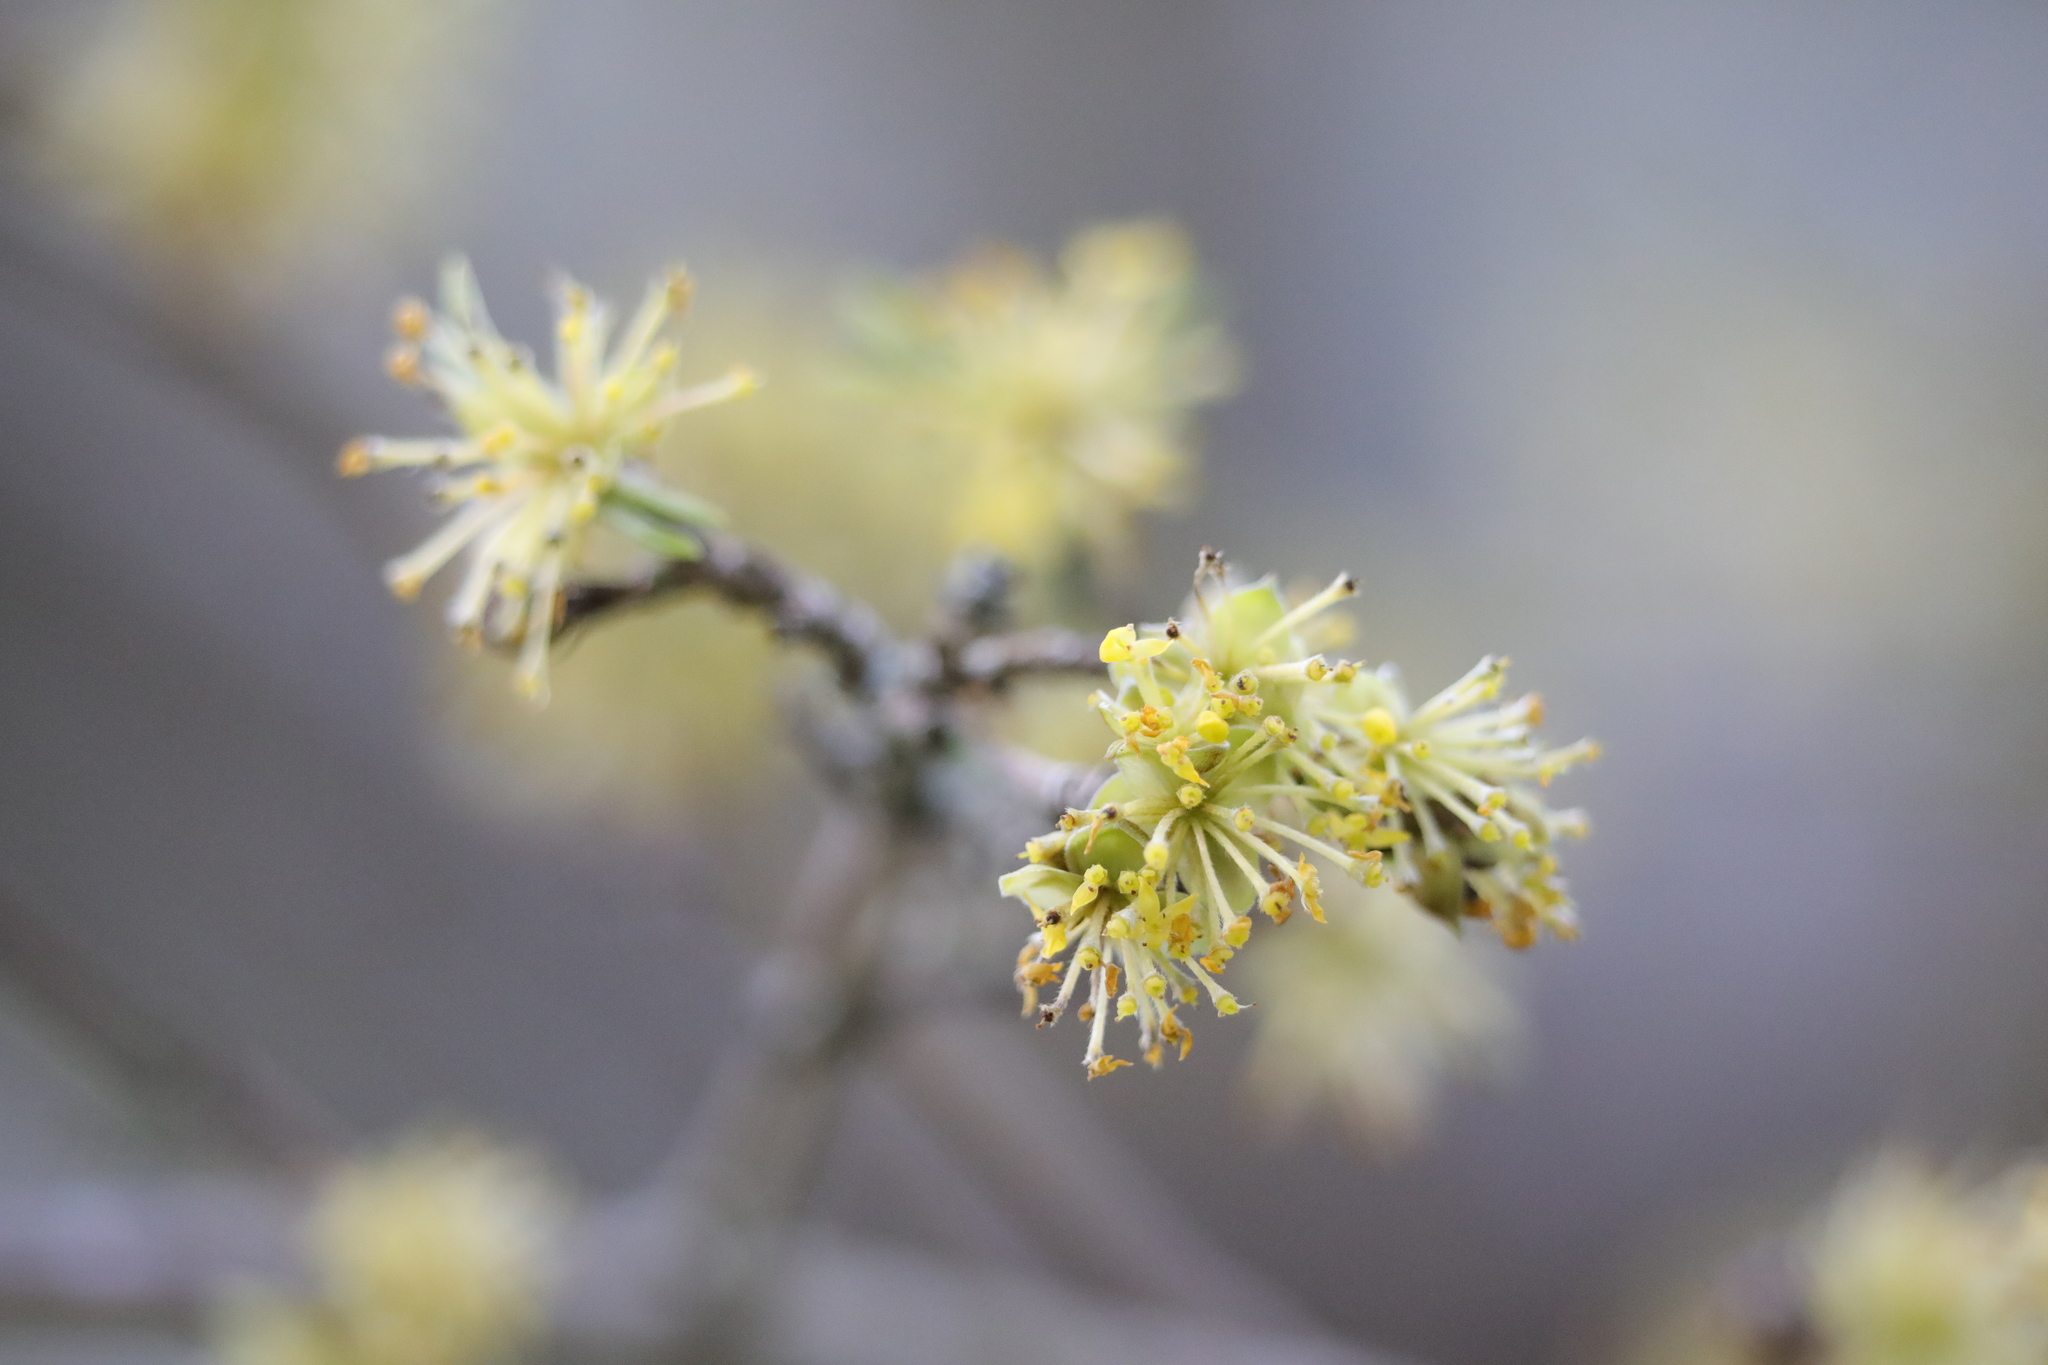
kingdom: Plantae
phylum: Tracheophyta
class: Magnoliopsida
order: Cornales
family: Cornaceae
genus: Cornus
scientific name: Cornus mas
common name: Cornelian-cherry
